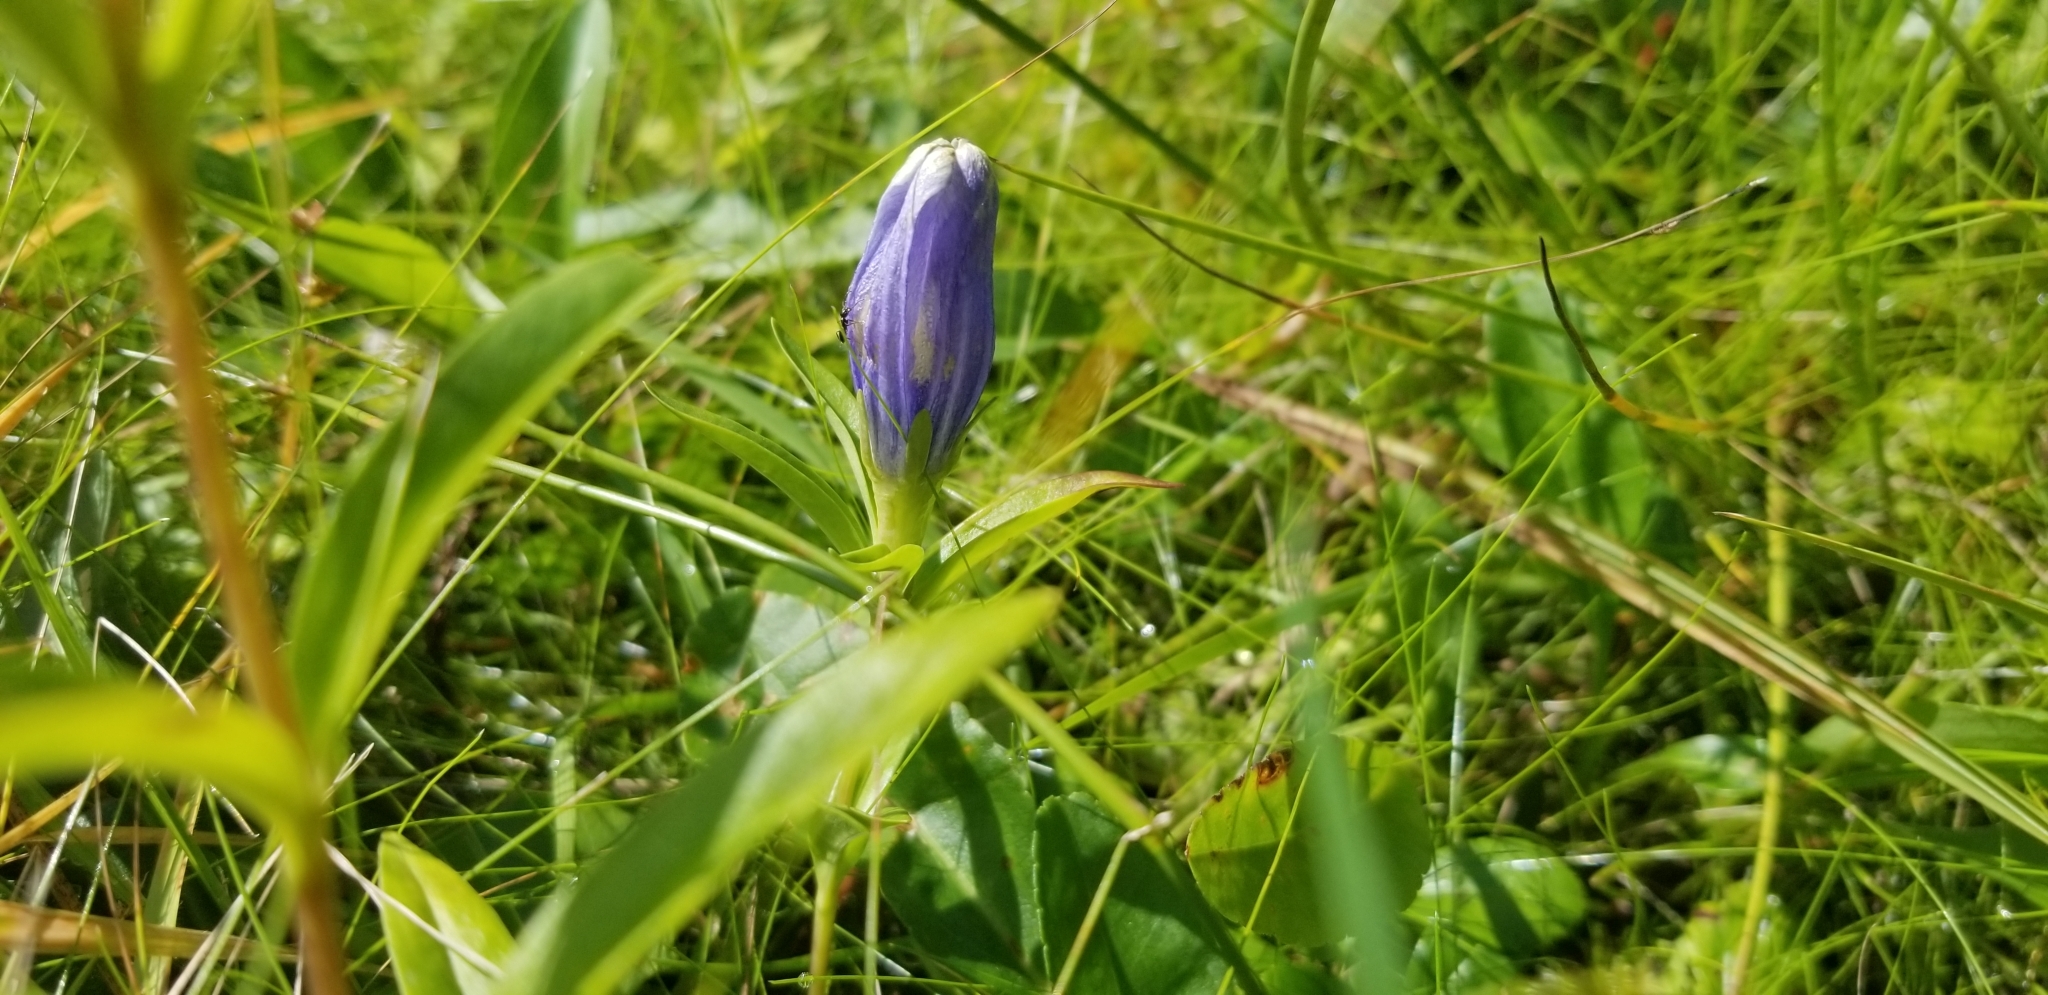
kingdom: Plantae
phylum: Tracheophyta
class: Magnoliopsida
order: Gentianales
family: Gentianaceae
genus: Gentiana
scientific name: Gentiana linearis
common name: Bastard gentian
